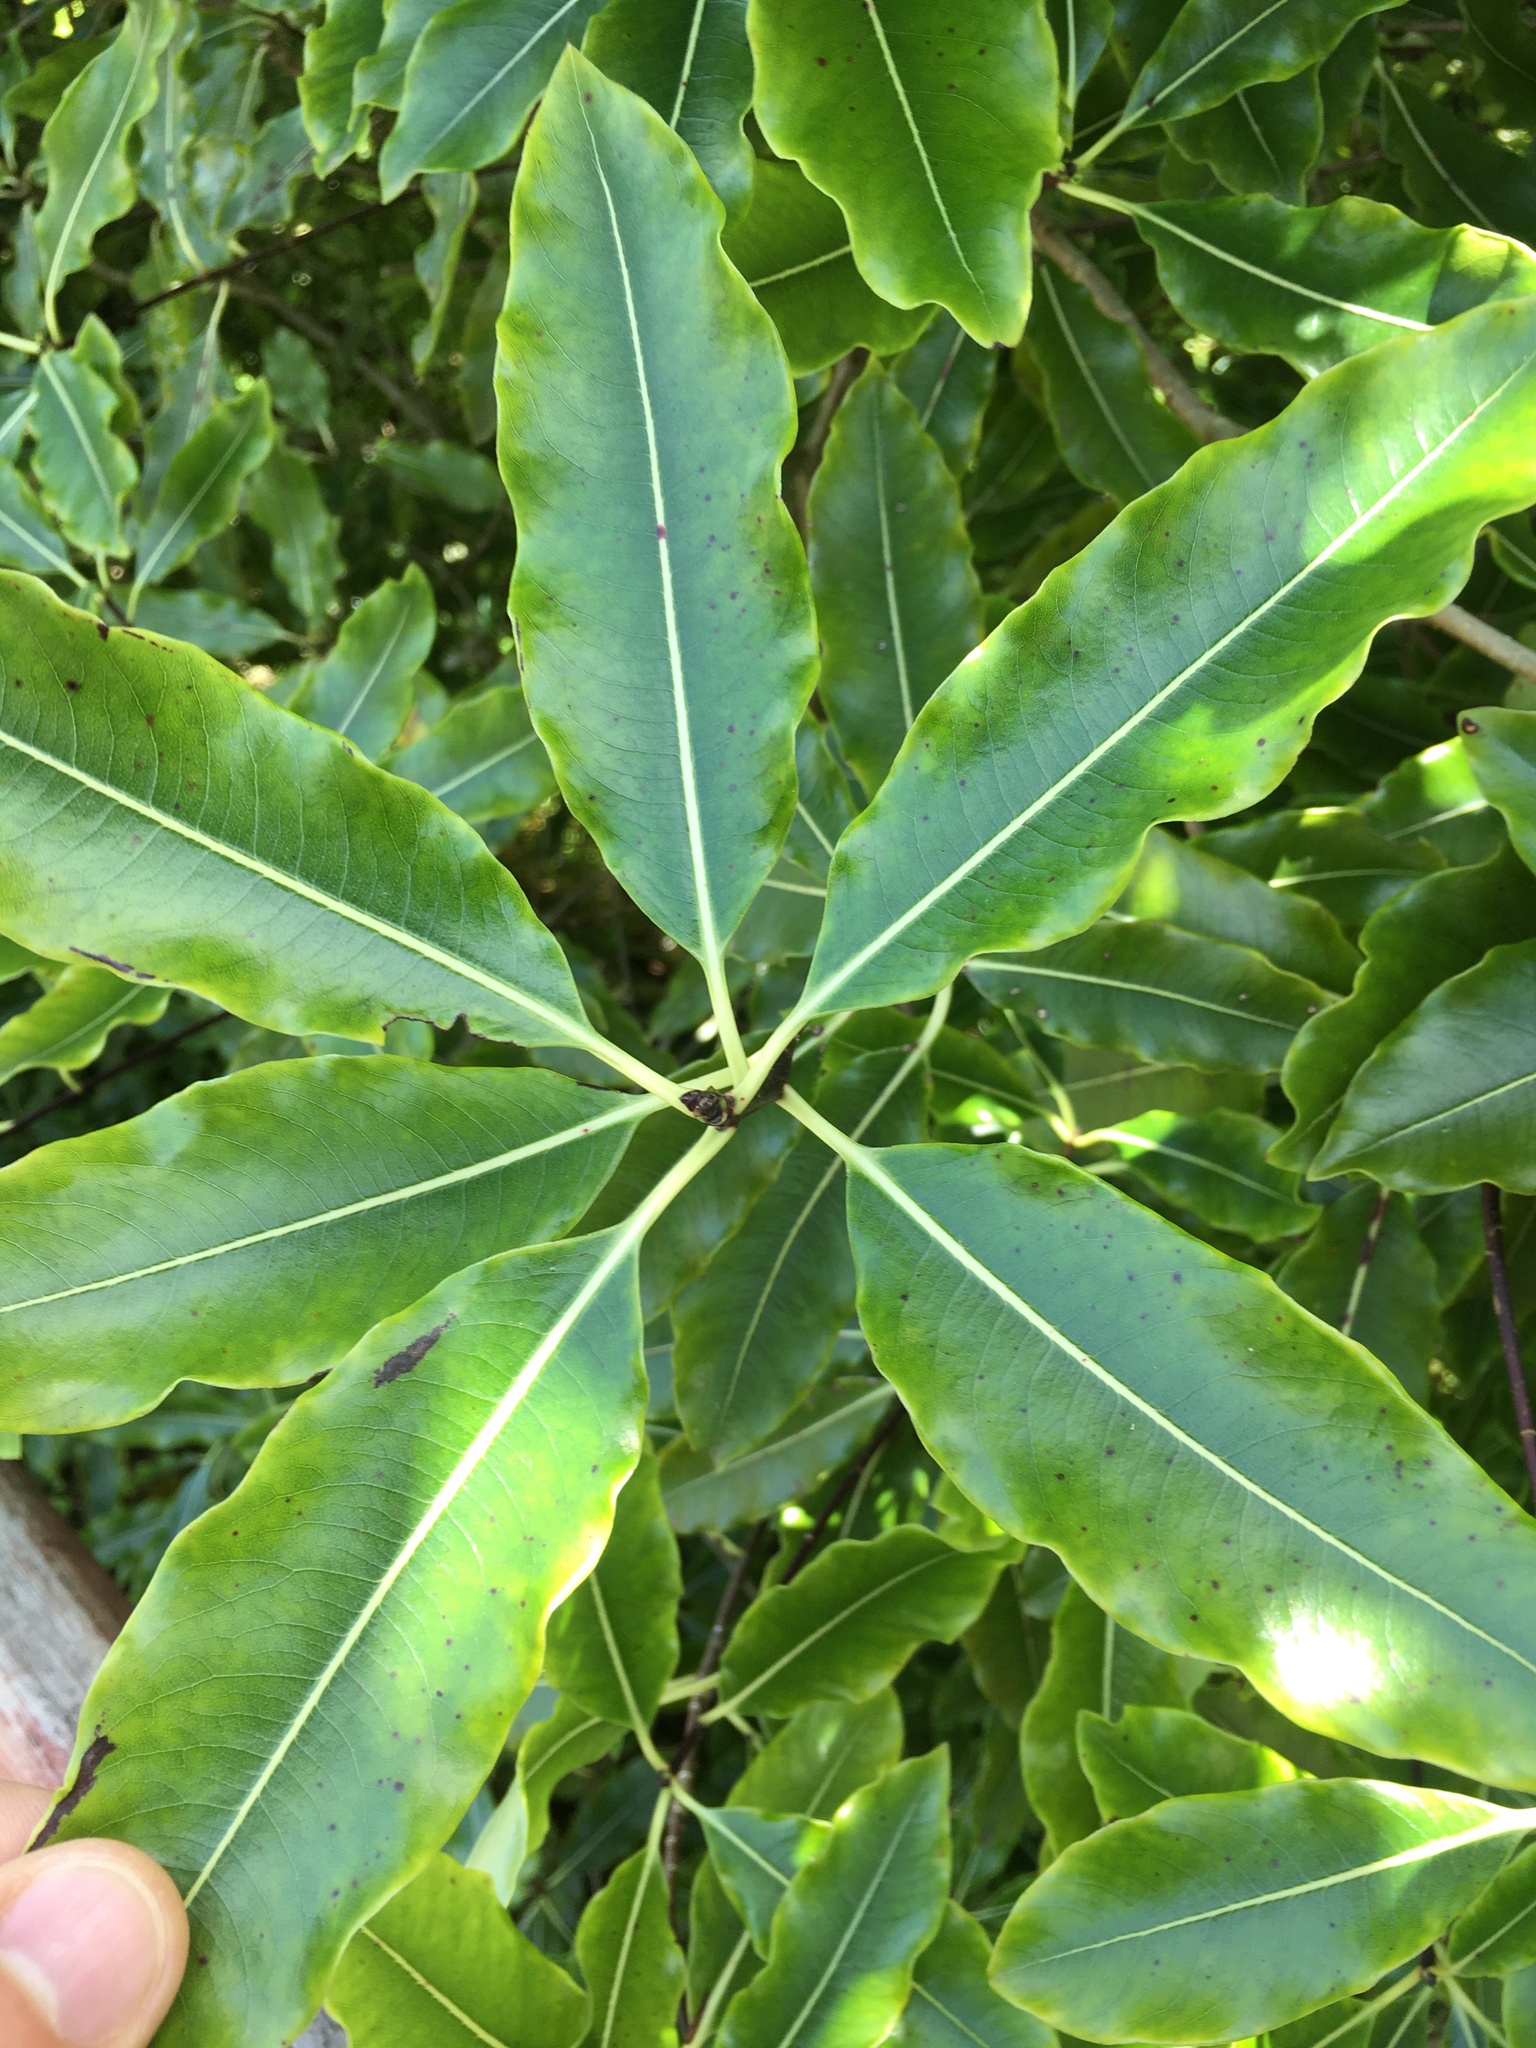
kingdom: Plantae
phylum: Tracheophyta
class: Magnoliopsida
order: Apiales
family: Pittosporaceae
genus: Pittosporum
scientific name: Pittosporum eugenioides
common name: Lemonwood
